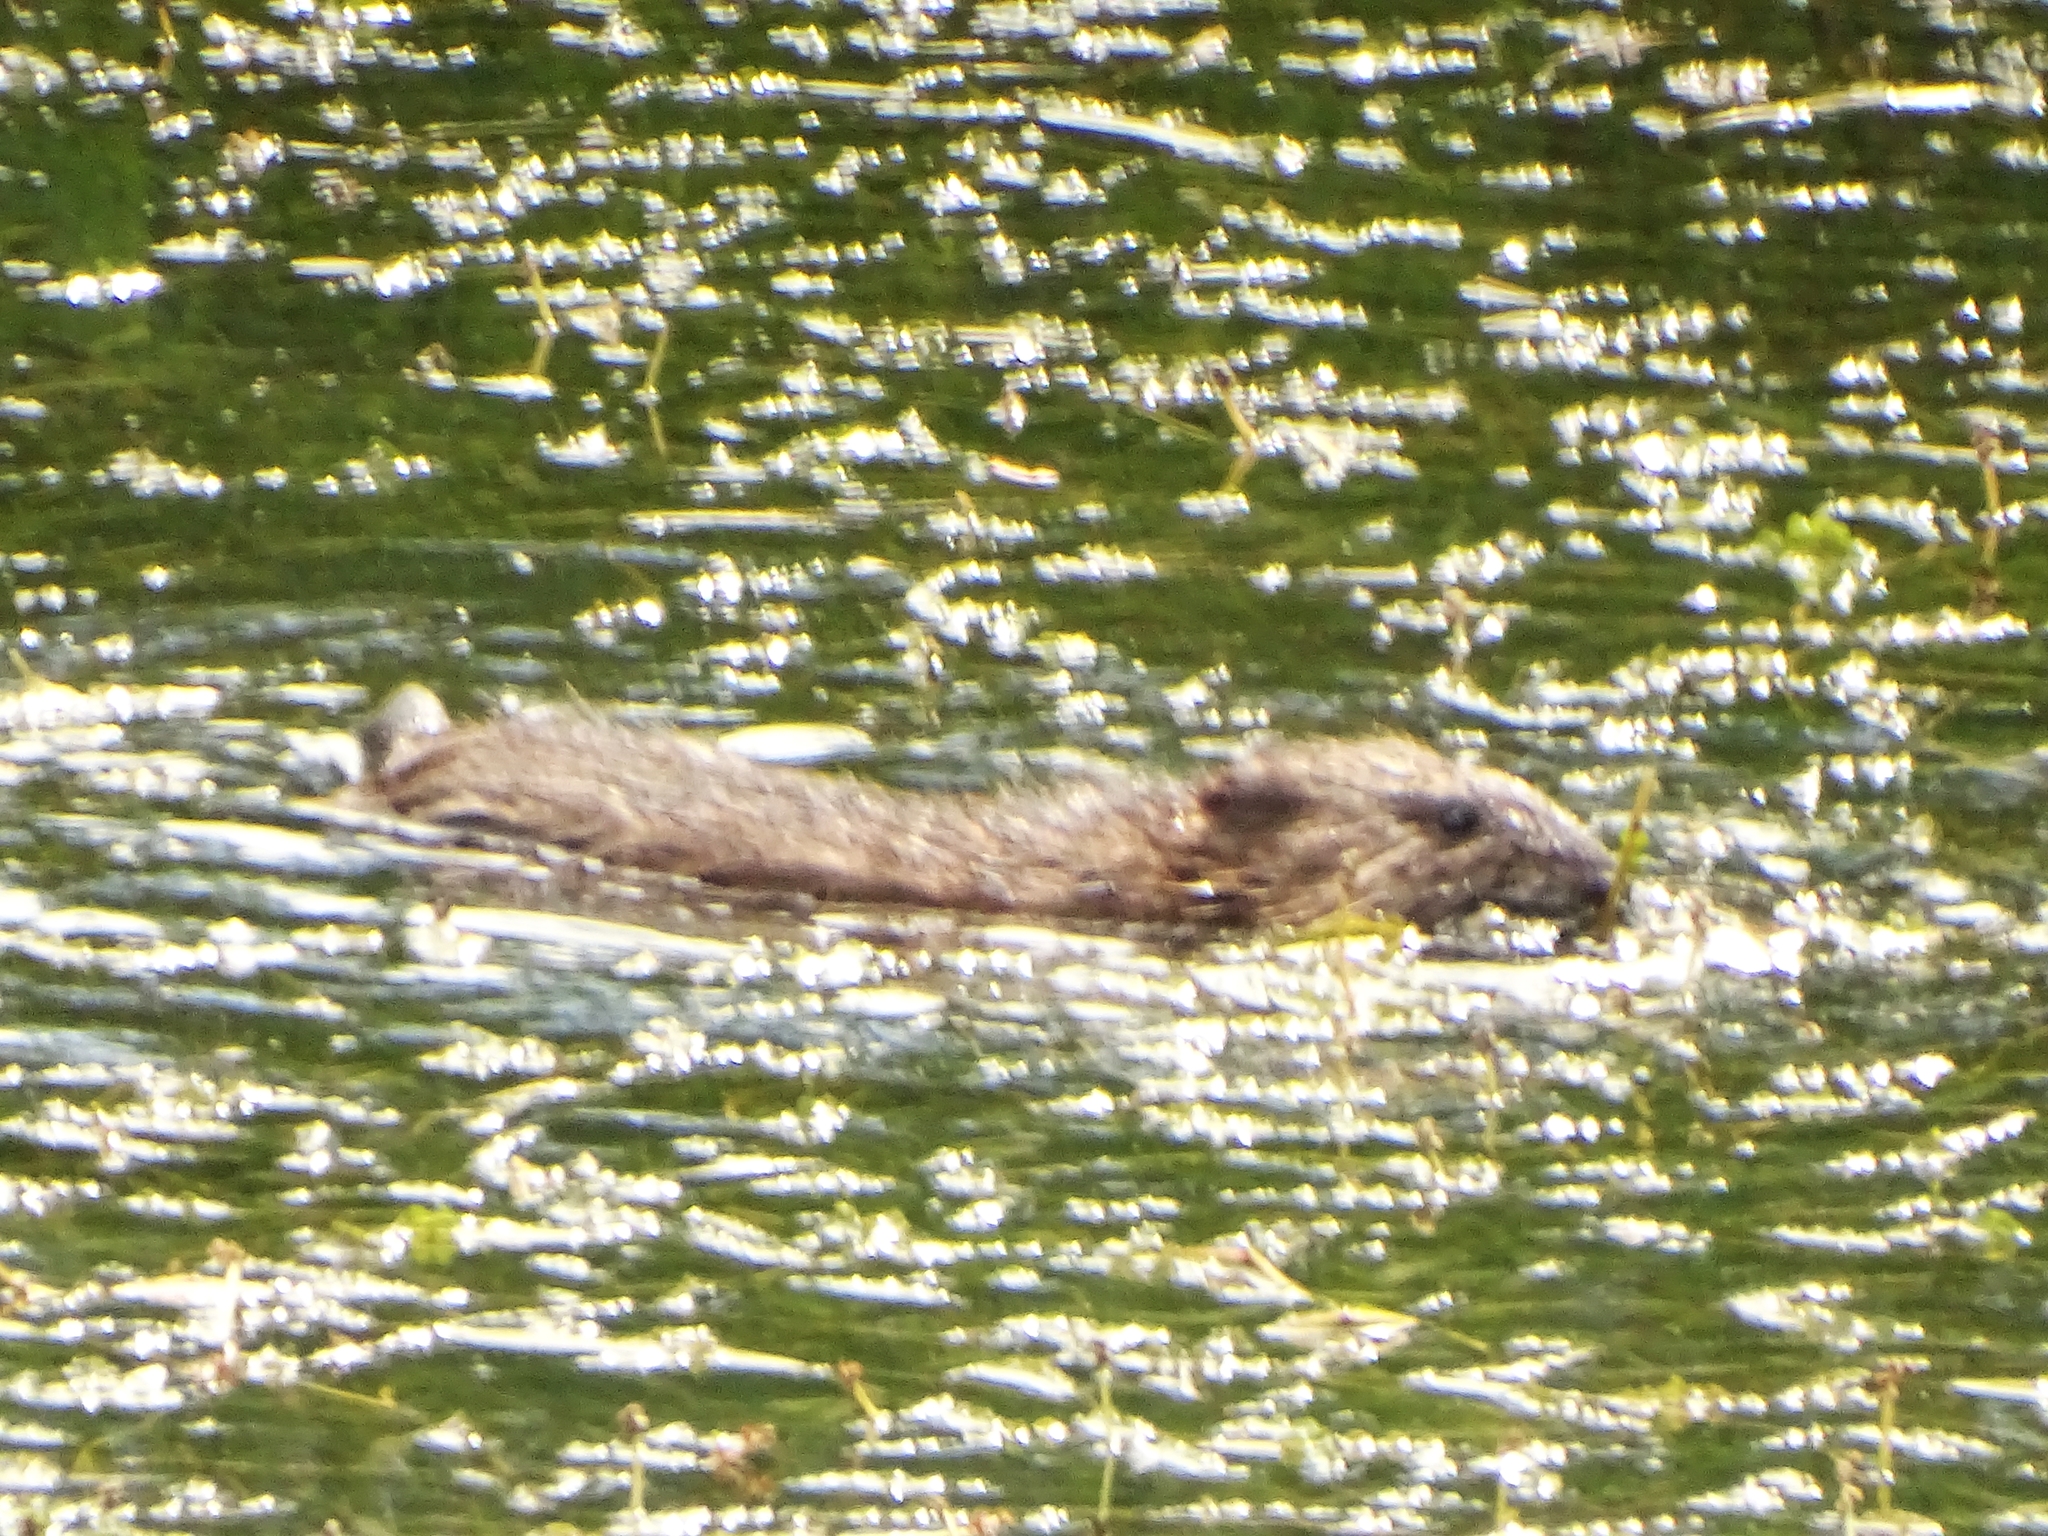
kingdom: Animalia
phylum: Chordata
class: Mammalia
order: Rodentia
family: Cricetidae
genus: Ondatra
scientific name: Ondatra zibethicus
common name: Muskrat
